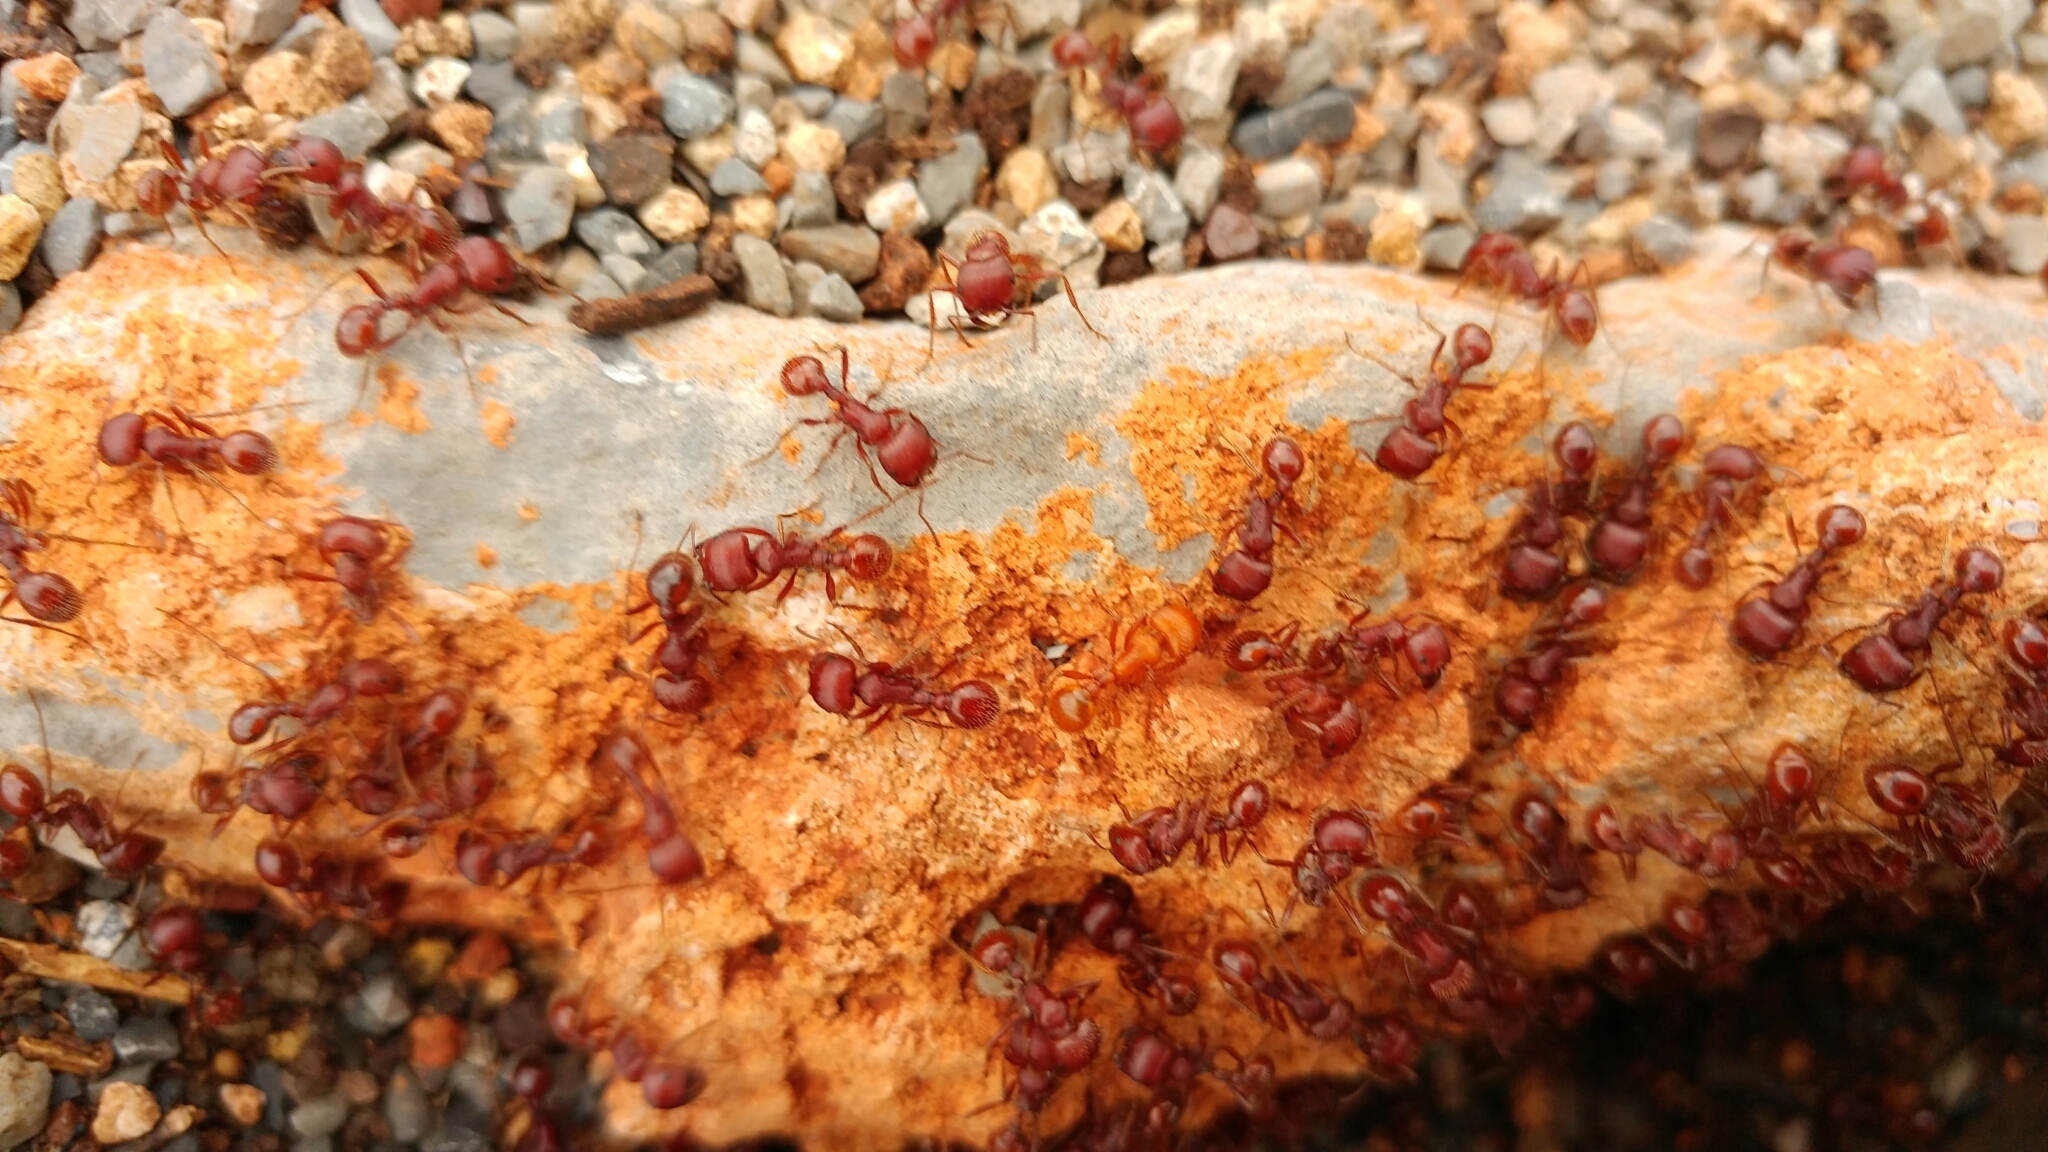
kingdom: Animalia
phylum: Arthropoda
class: Insecta
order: Hymenoptera
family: Formicidae
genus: Pogonomyrmex
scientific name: Pogonomyrmex barbatus
